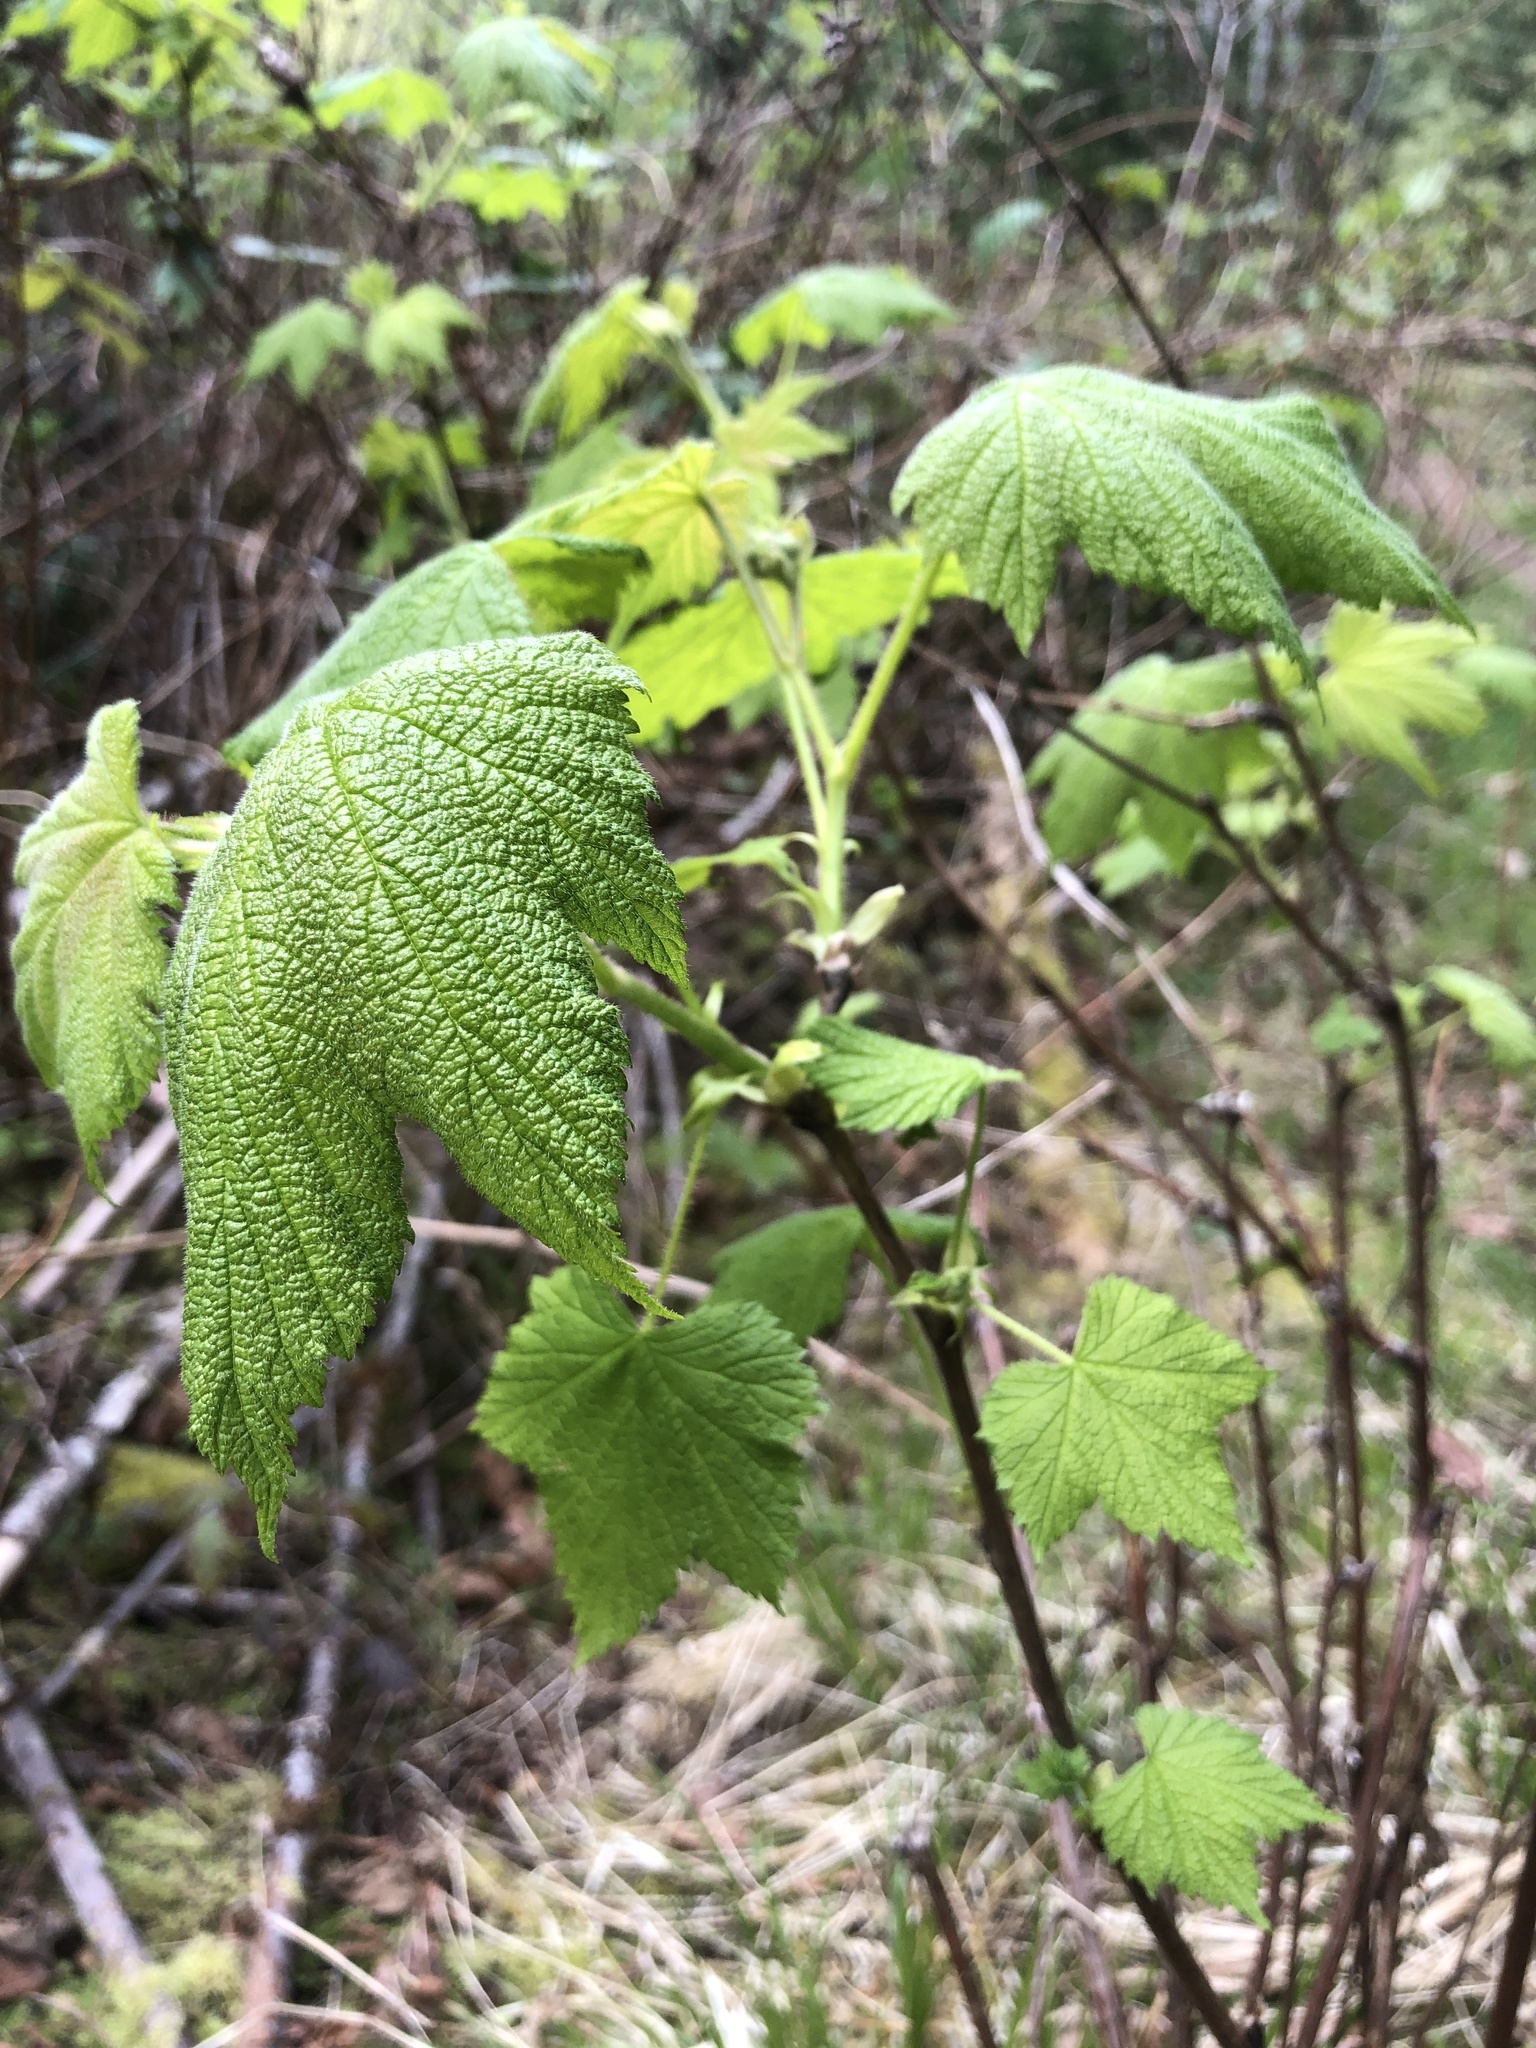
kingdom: Plantae
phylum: Tracheophyta
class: Magnoliopsida
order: Rosales
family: Rosaceae
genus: Rubus
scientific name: Rubus parviflorus
